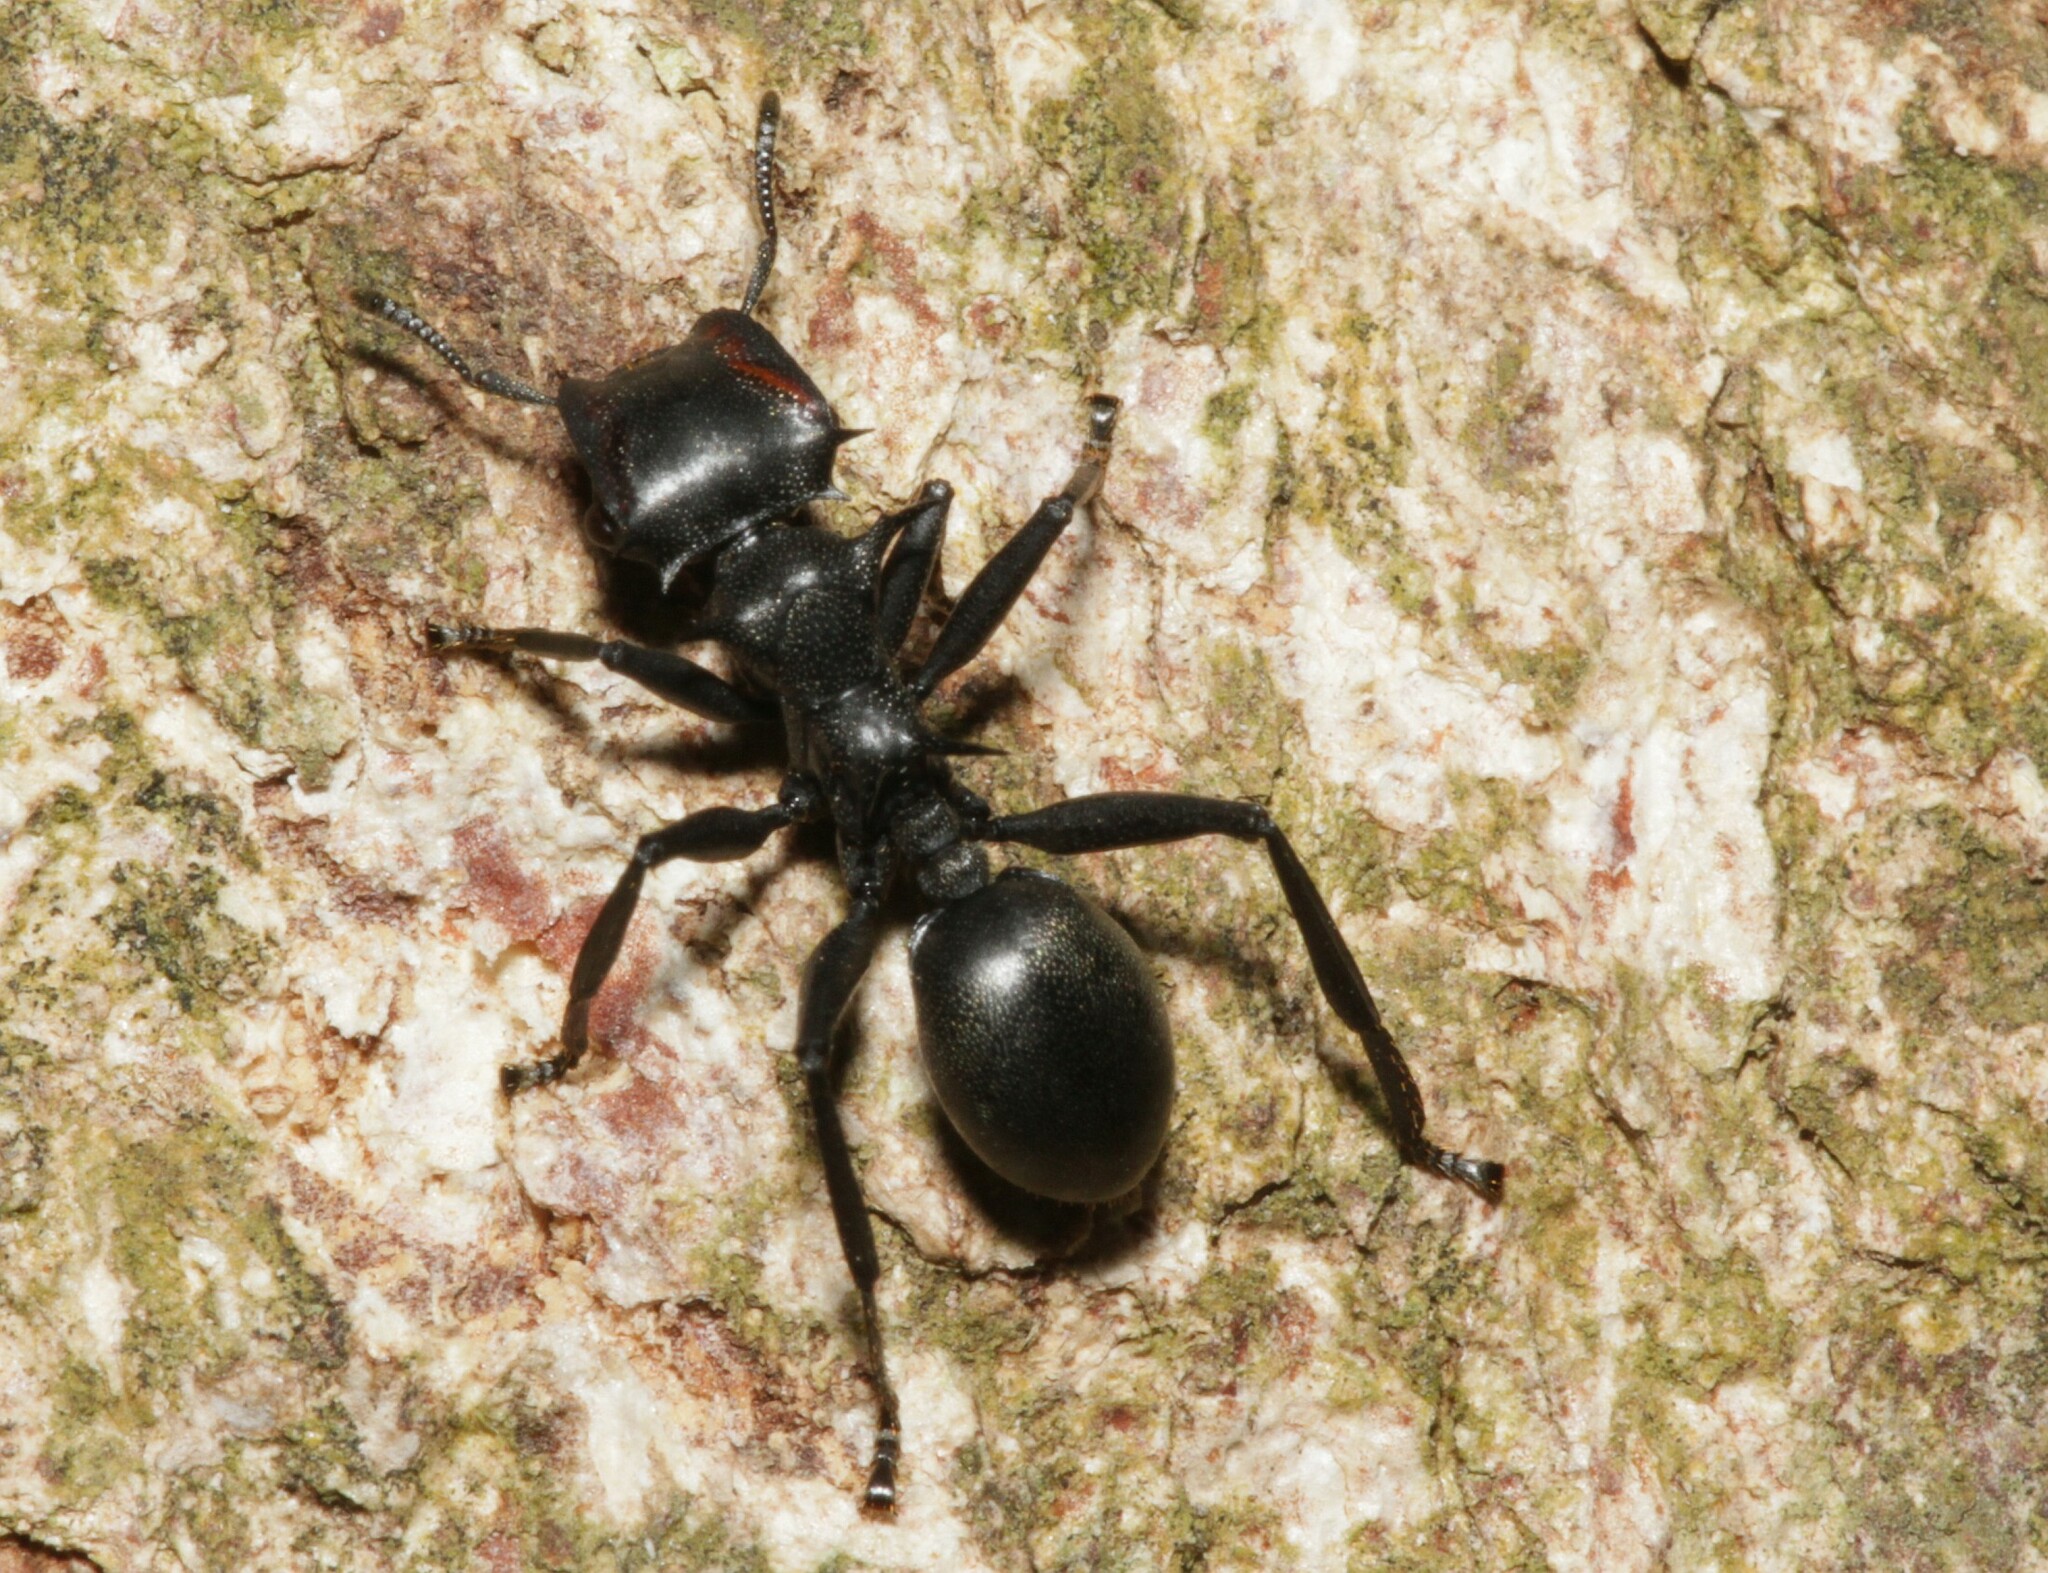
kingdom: Animalia
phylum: Arthropoda
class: Insecta
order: Hymenoptera
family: Formicidae
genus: Cephalotes
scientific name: Cephalotes atratus
